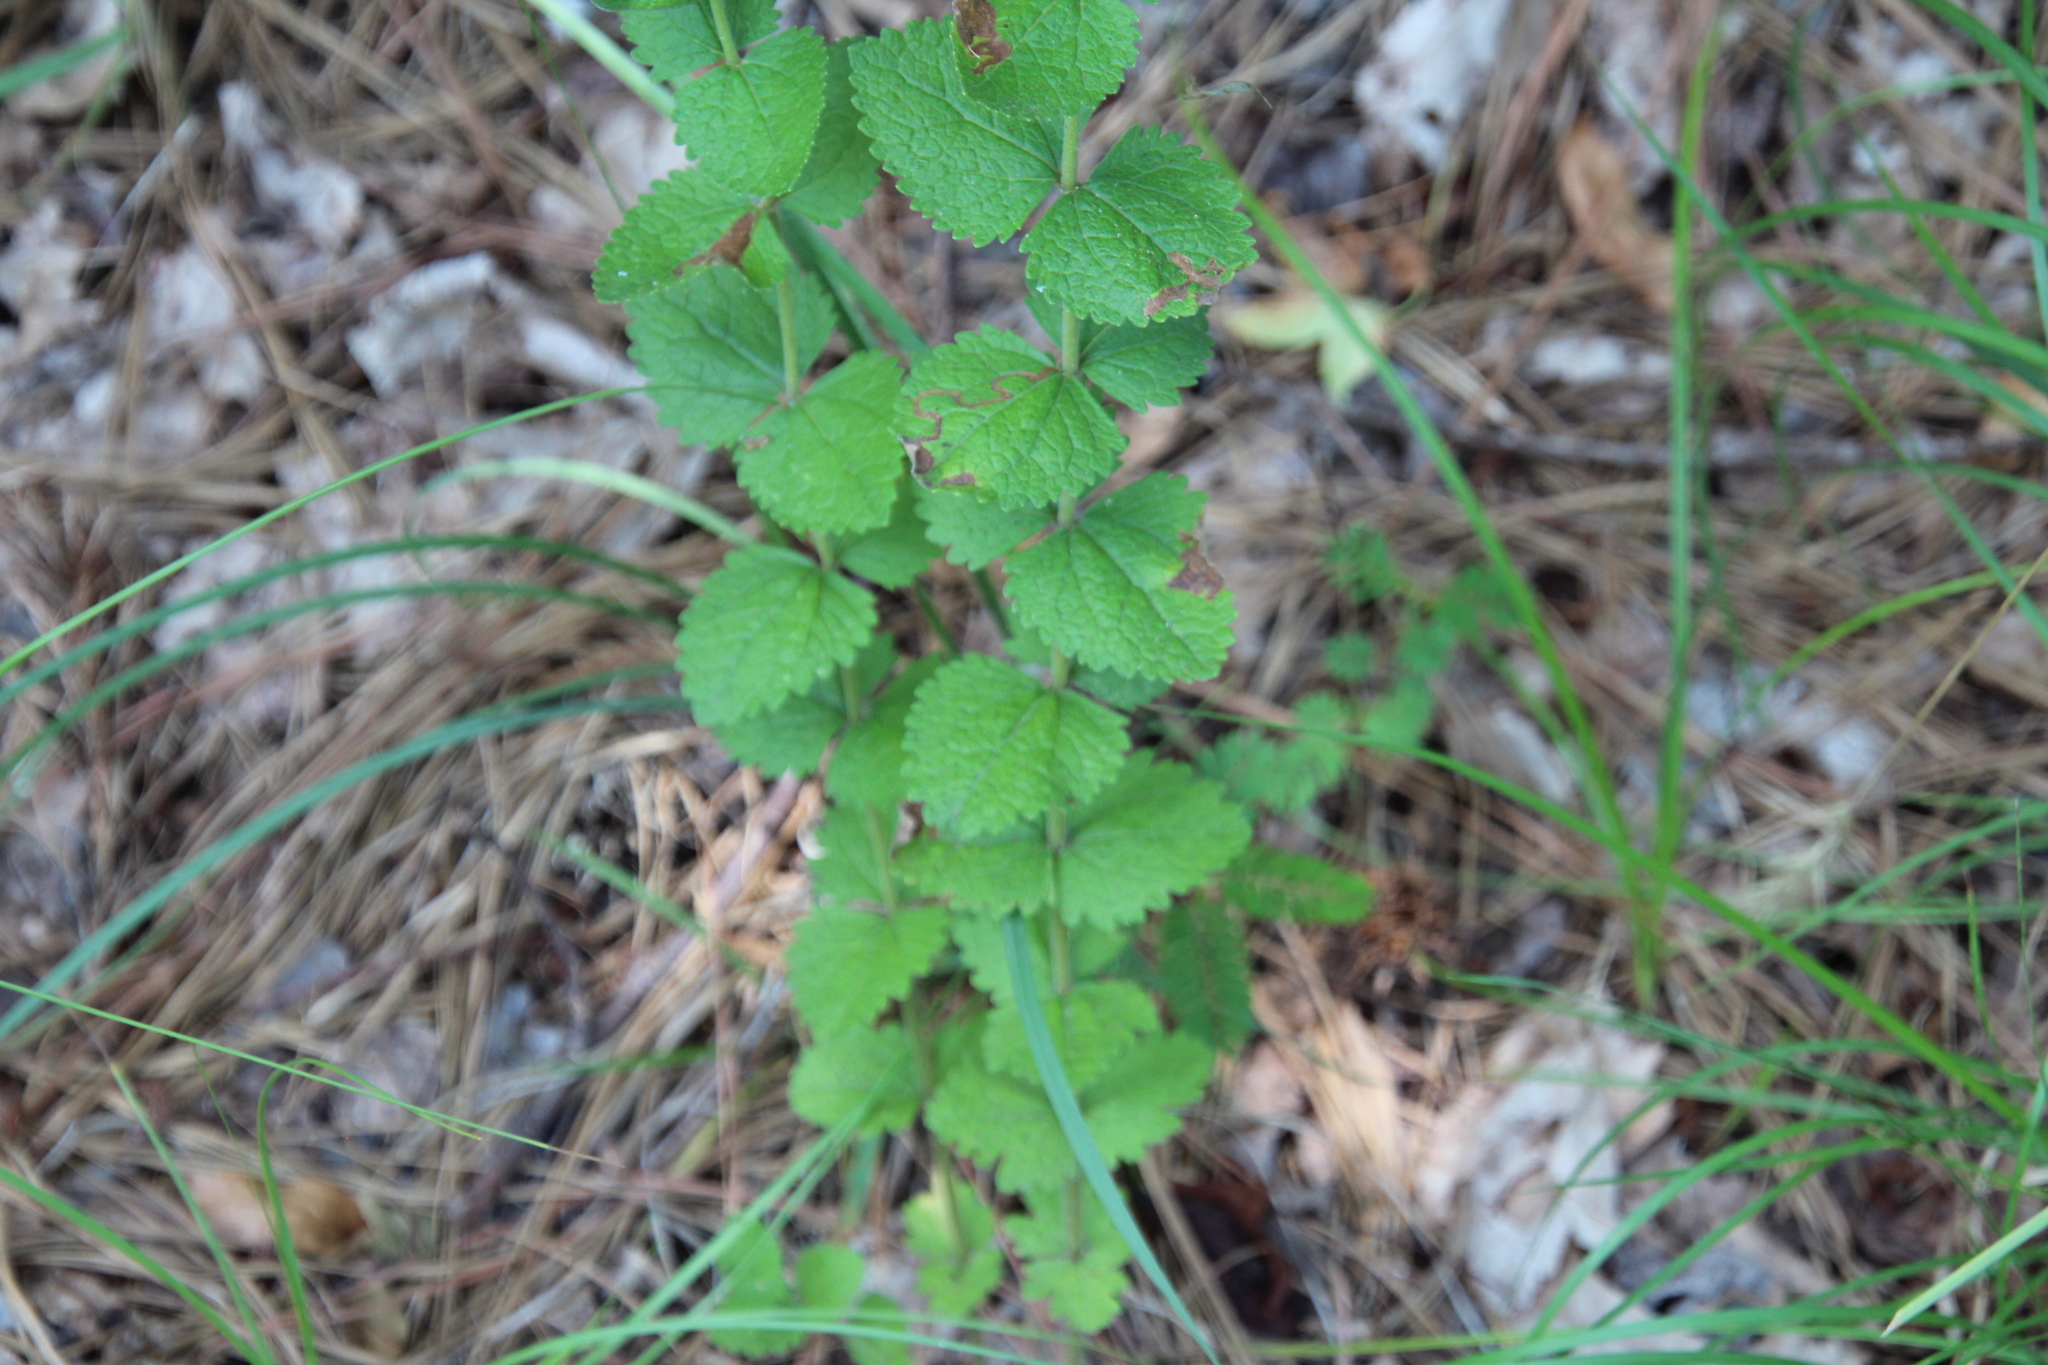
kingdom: Plantae
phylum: Tracheophyta
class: Magnoliopsida
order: Asterales
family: Asteraceae
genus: Eupatorium
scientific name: Eupatorium rotundifolium
